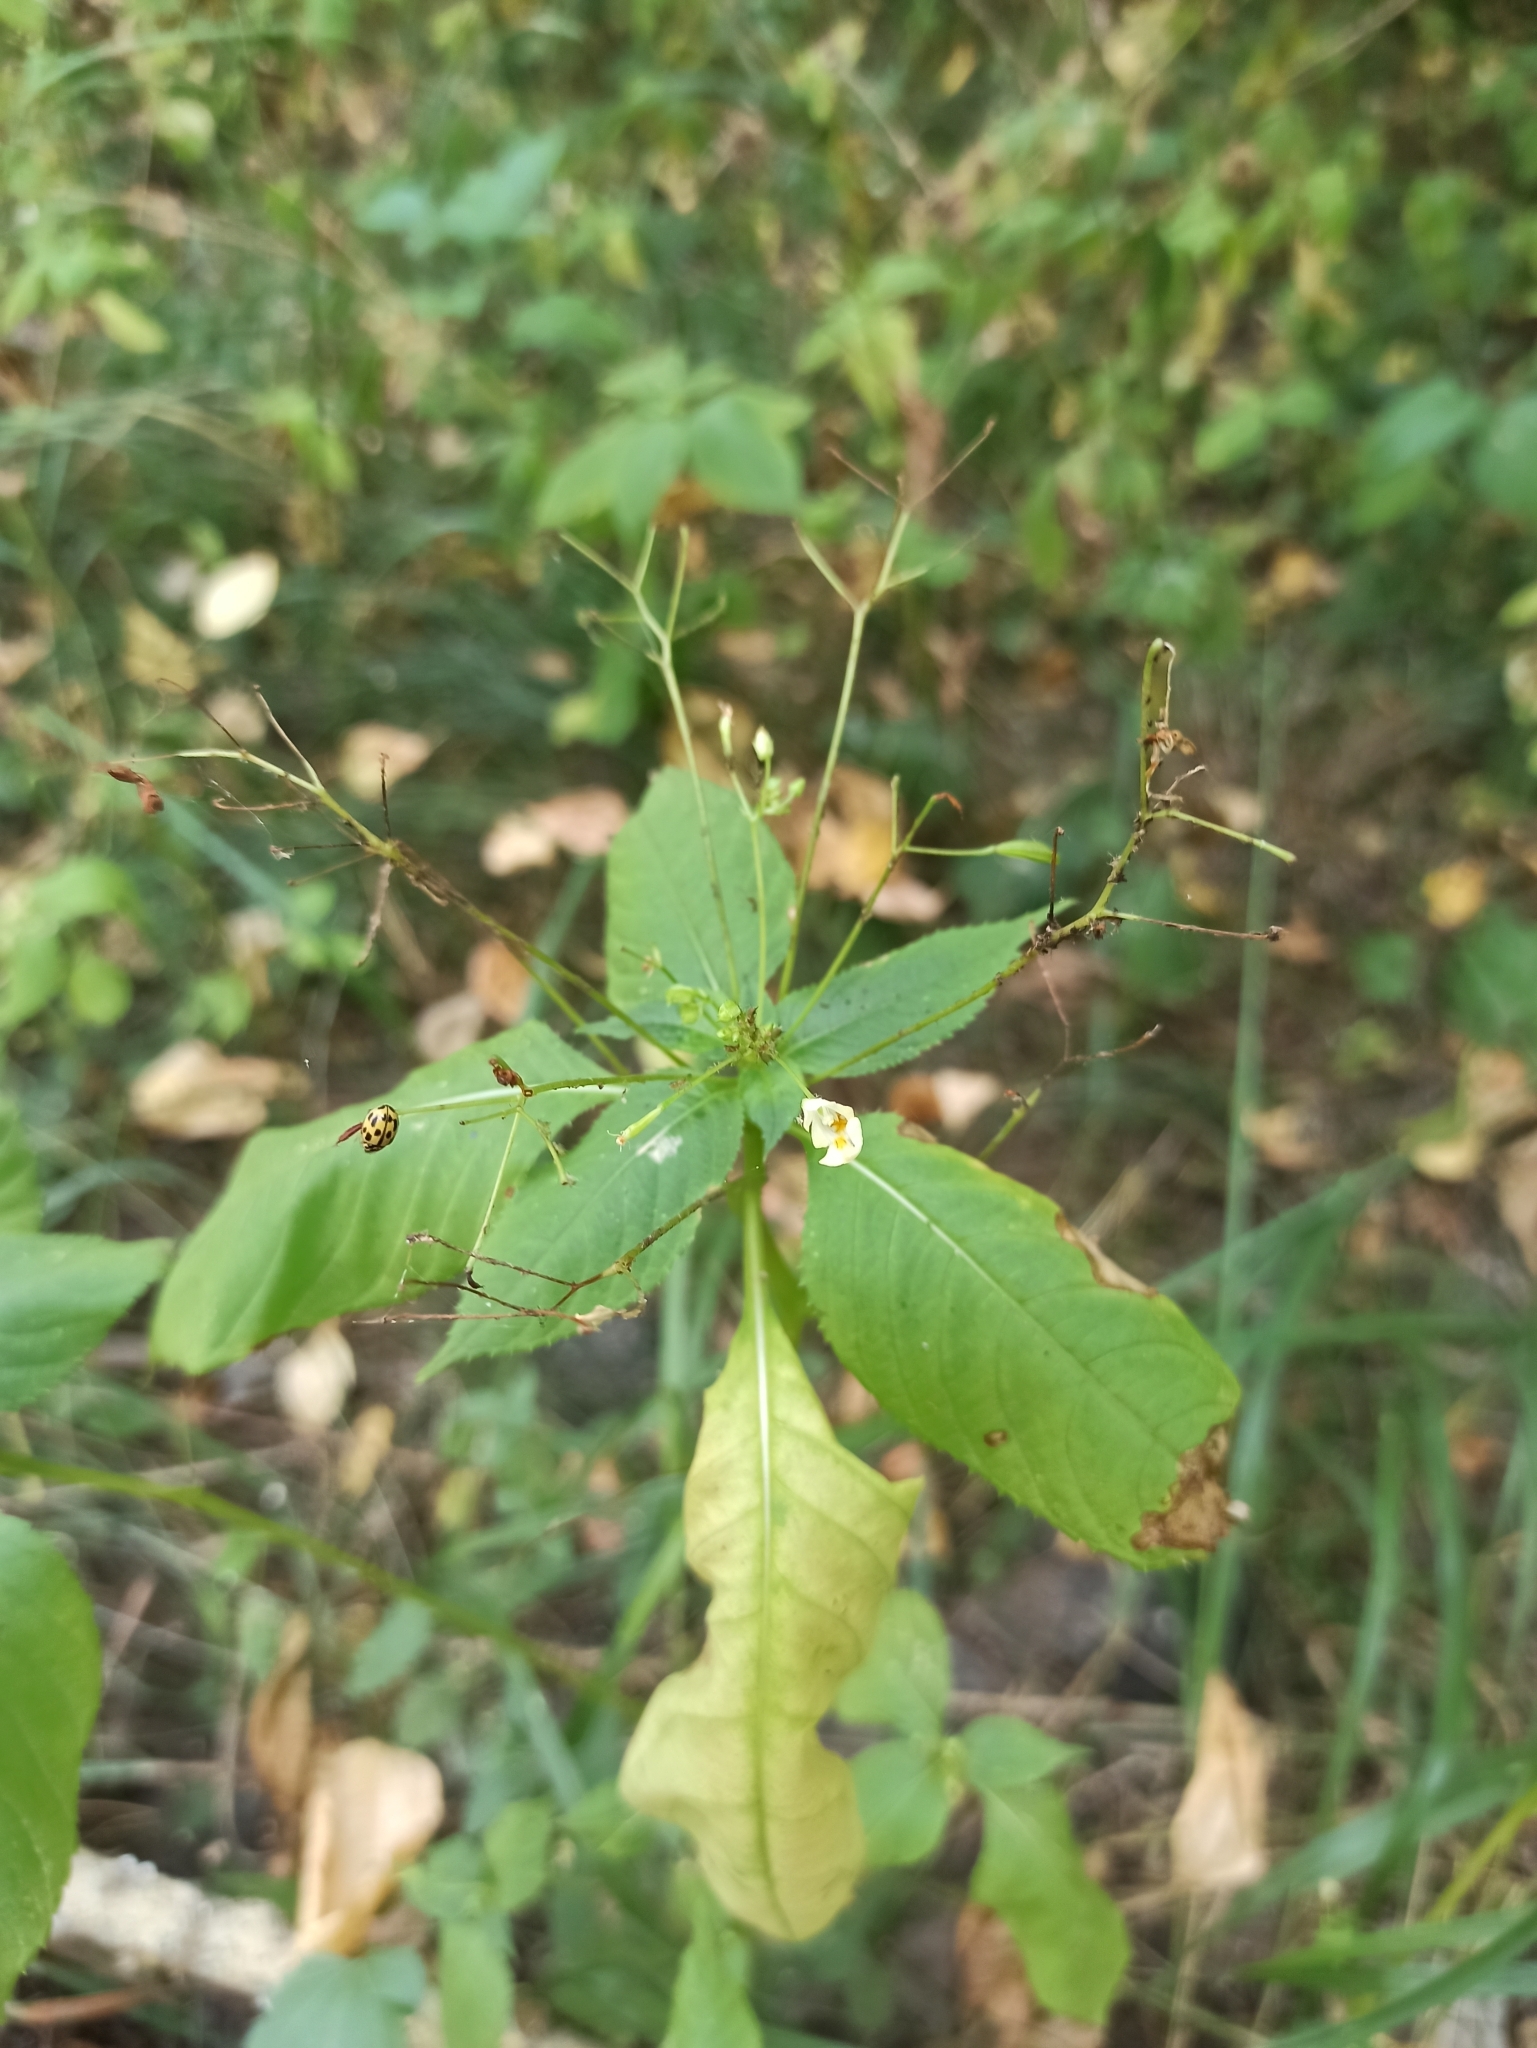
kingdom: Plantae
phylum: Tracheophyta
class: Magnoliopsida
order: Ericales
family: Balsaminaceae
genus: Impatiens
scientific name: Impatiens parviflora
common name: Small balsam
